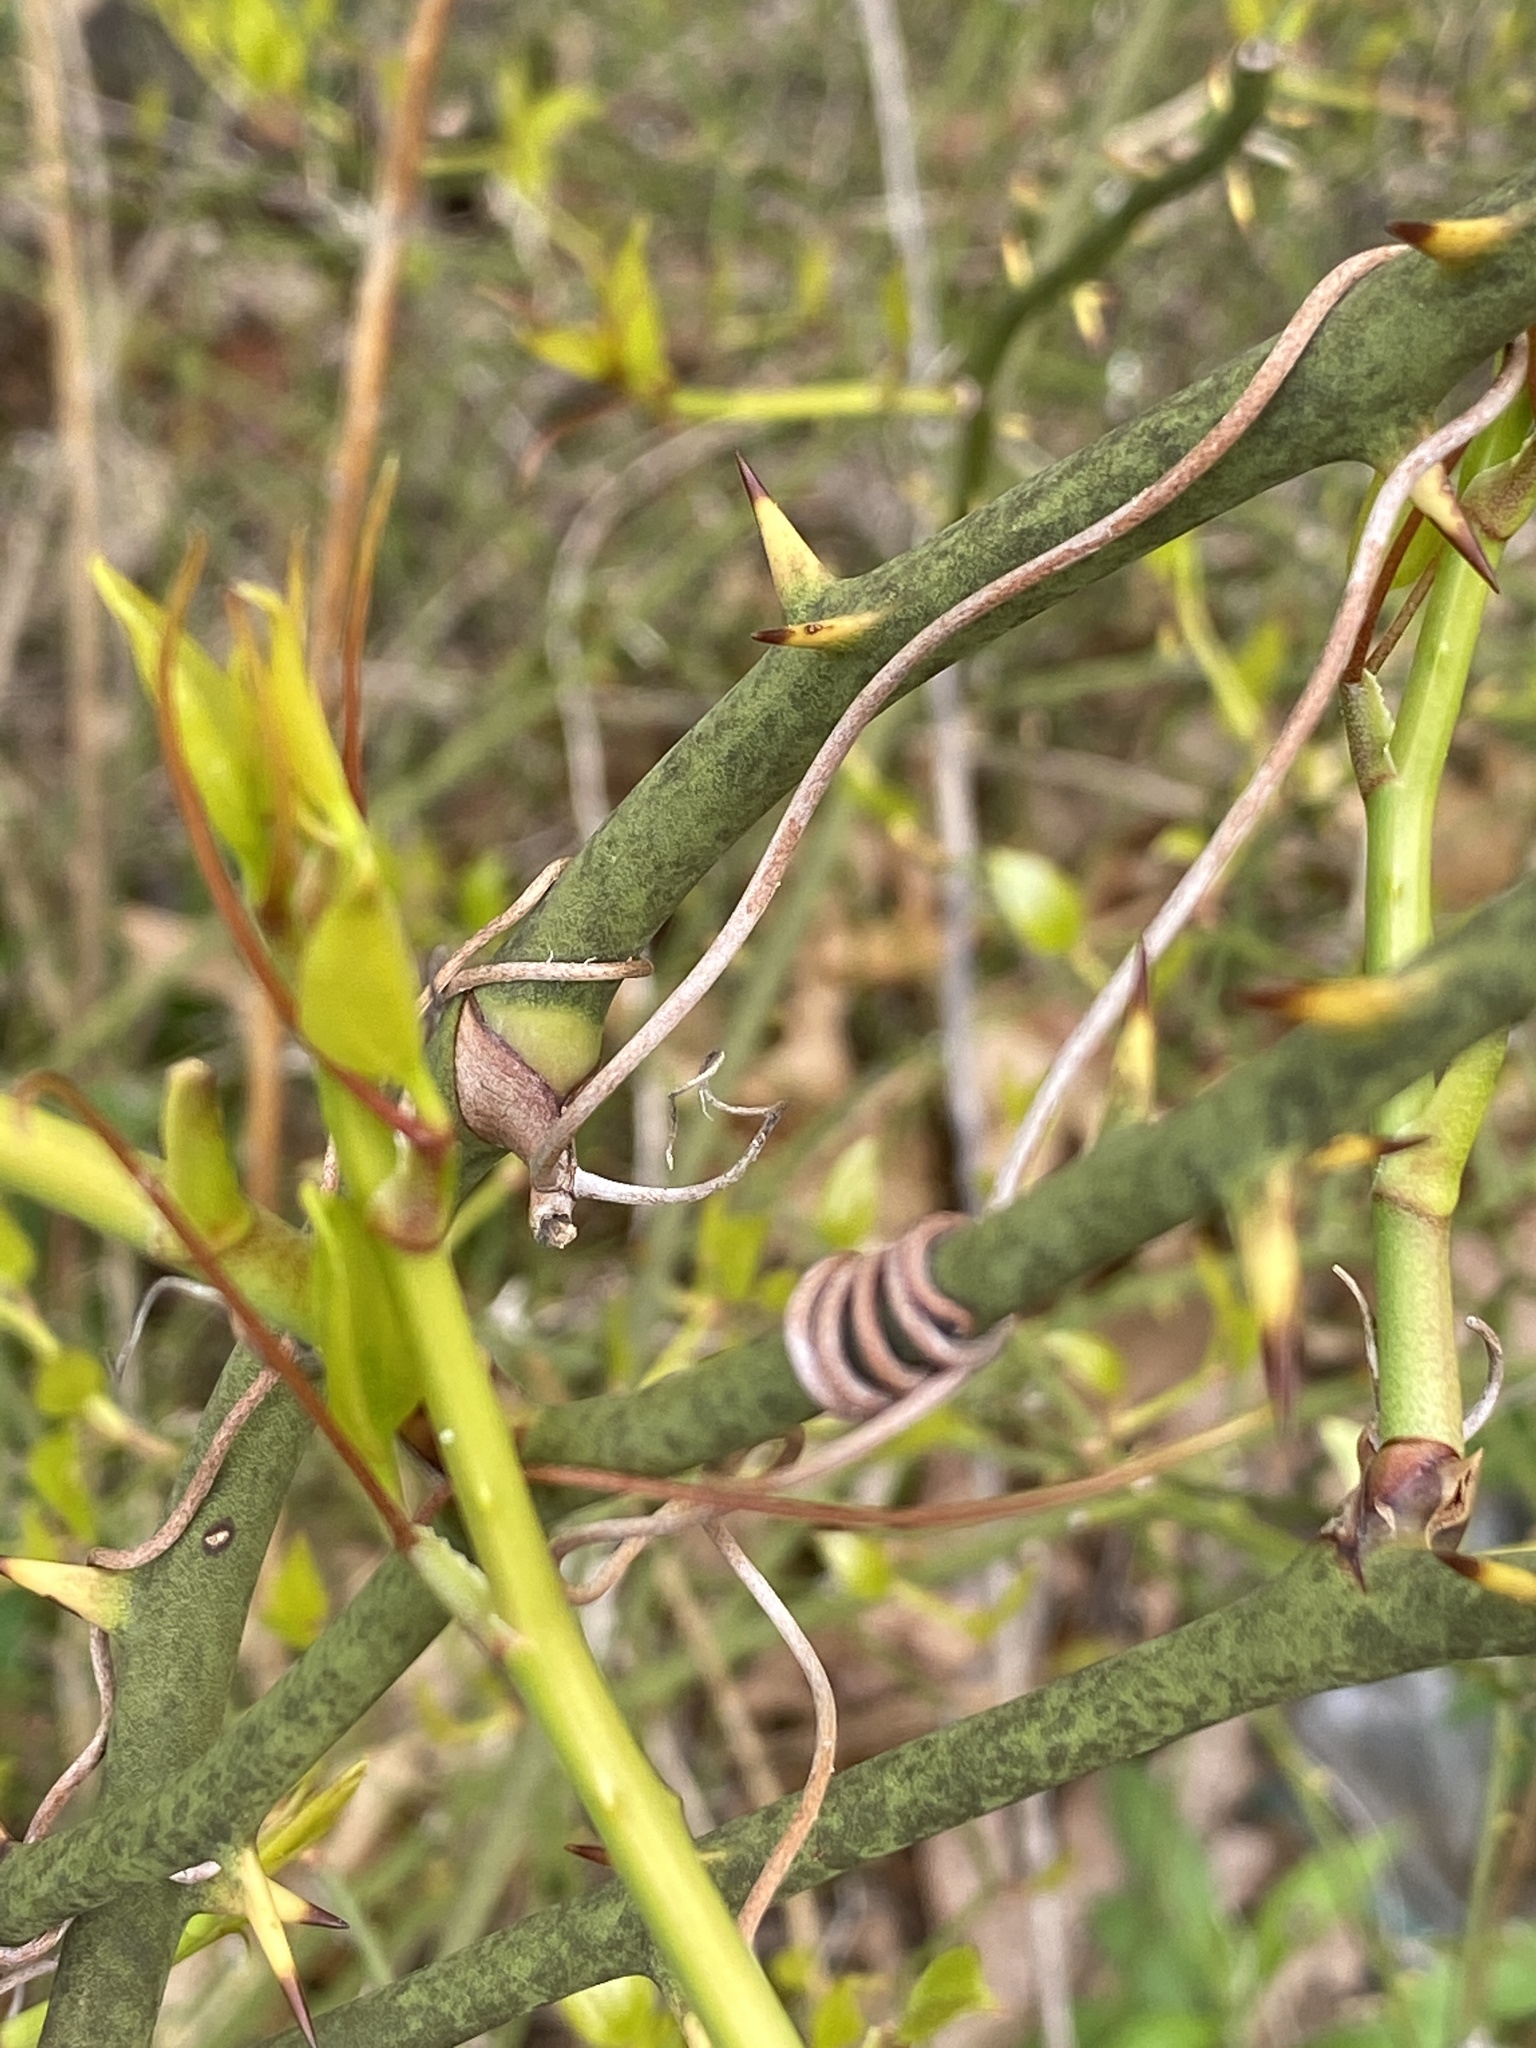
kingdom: Plantae
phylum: Tracheophyta
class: Liliopsida
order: Liliales
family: Smilacaceae
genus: Smilax
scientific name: Smilax rotundifolia
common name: Bullbriar
